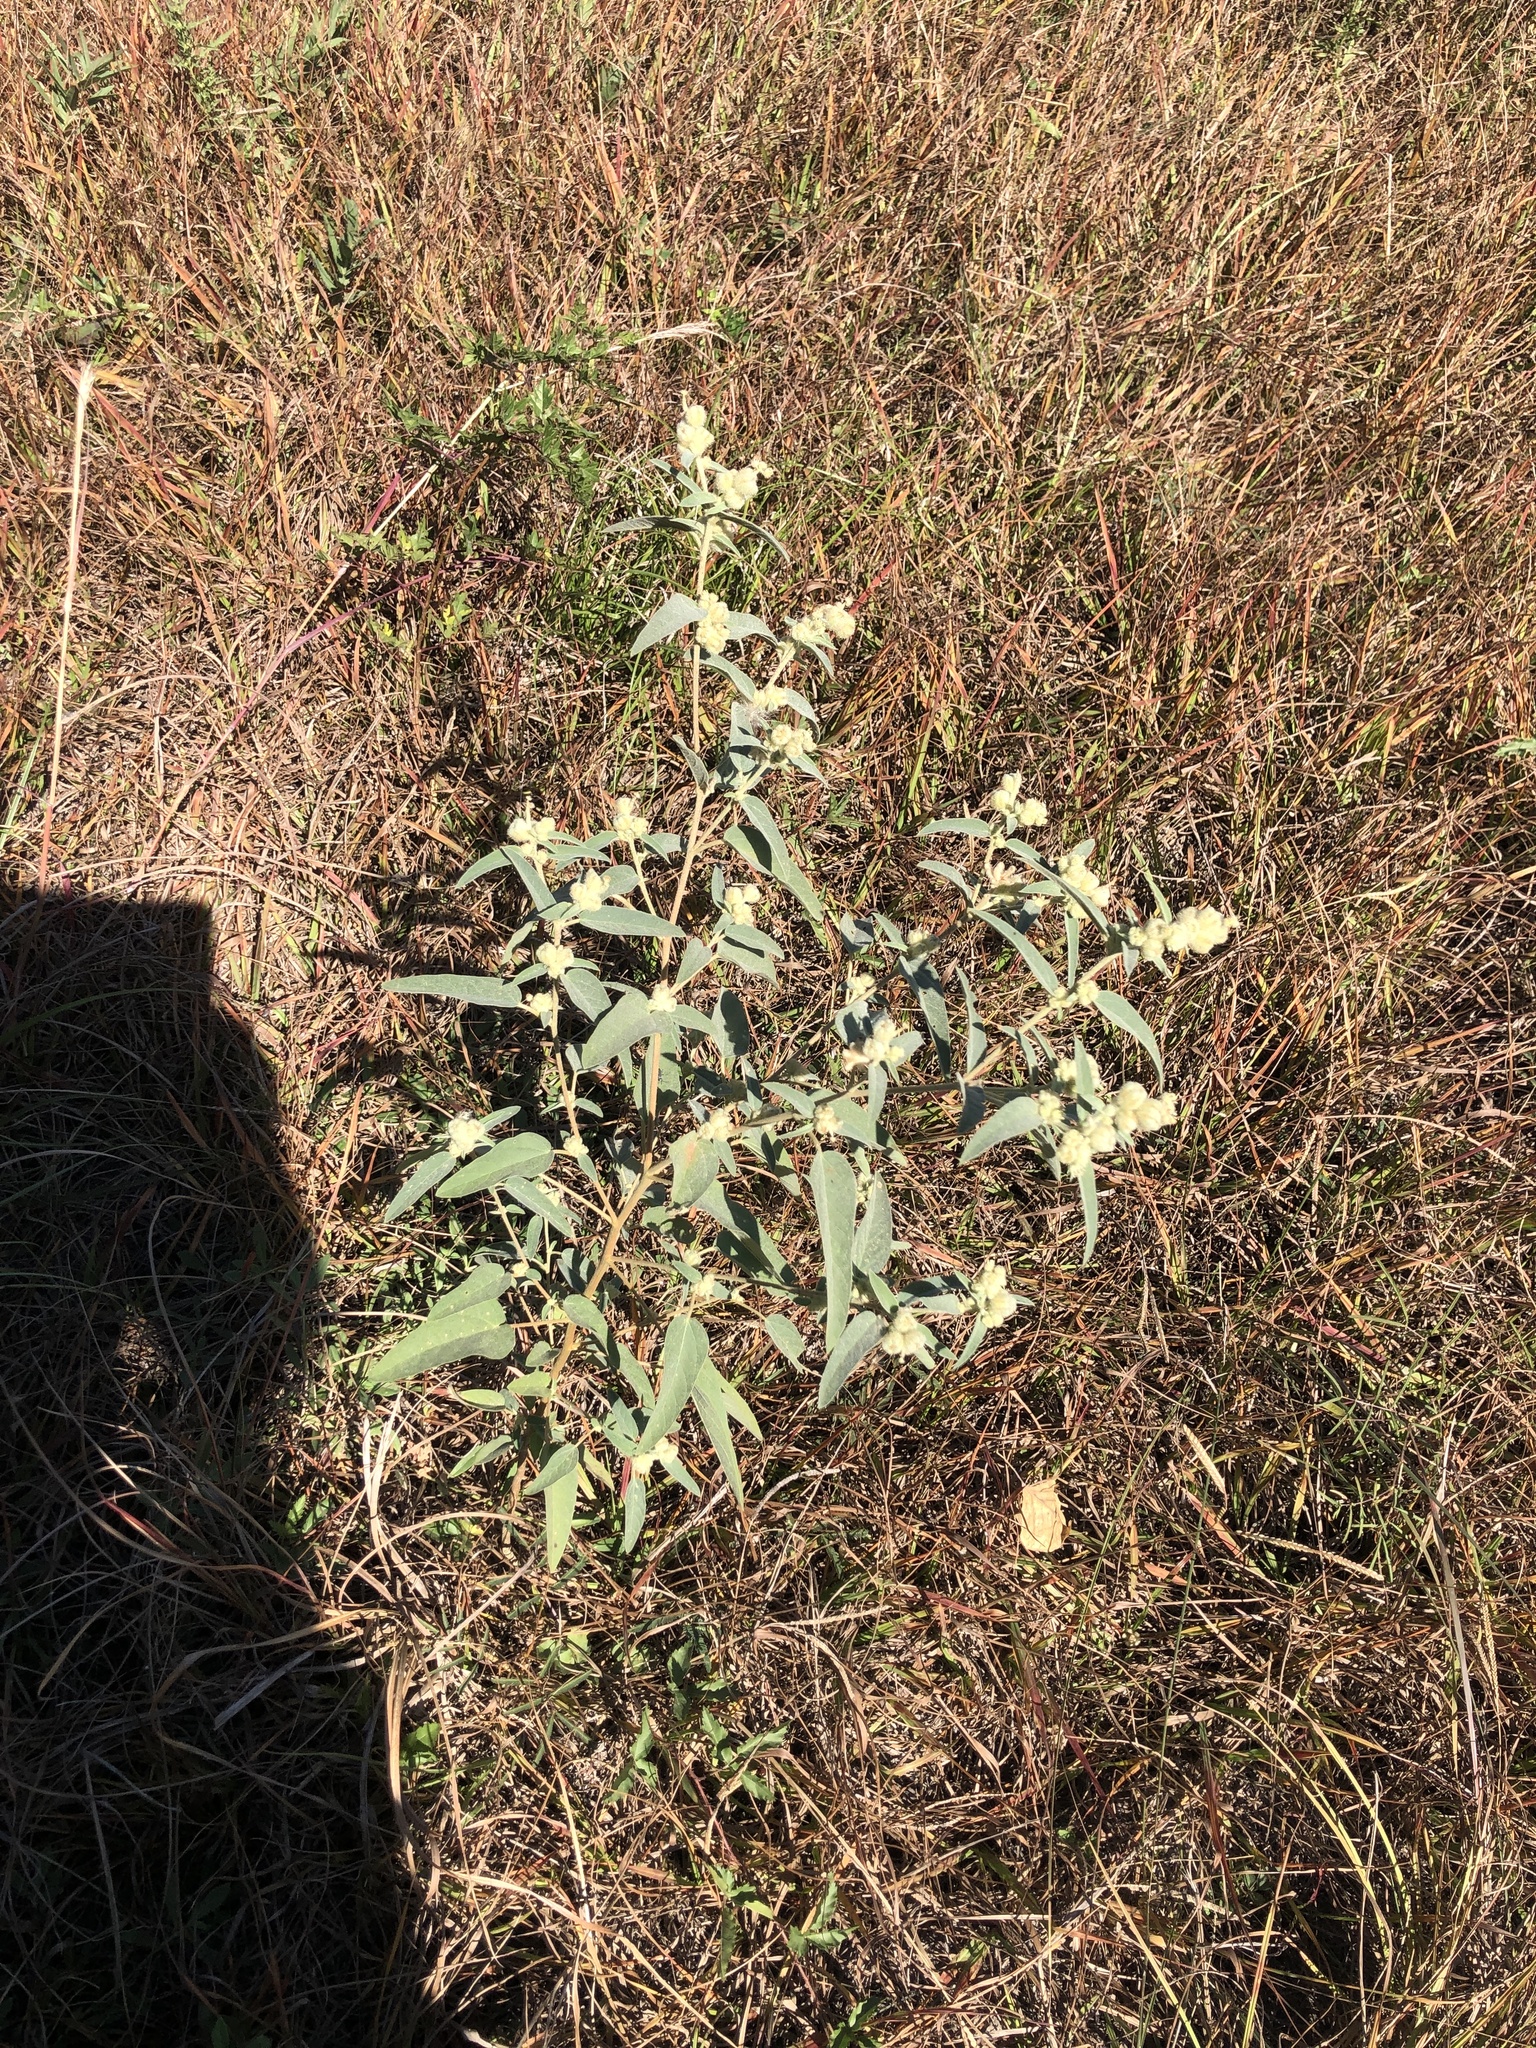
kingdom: Plantae
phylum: Tracheophyta
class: Magnoliopsida
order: Malpighiales
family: Euphorbiaceae
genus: Croton
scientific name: Croton lindheimeri
